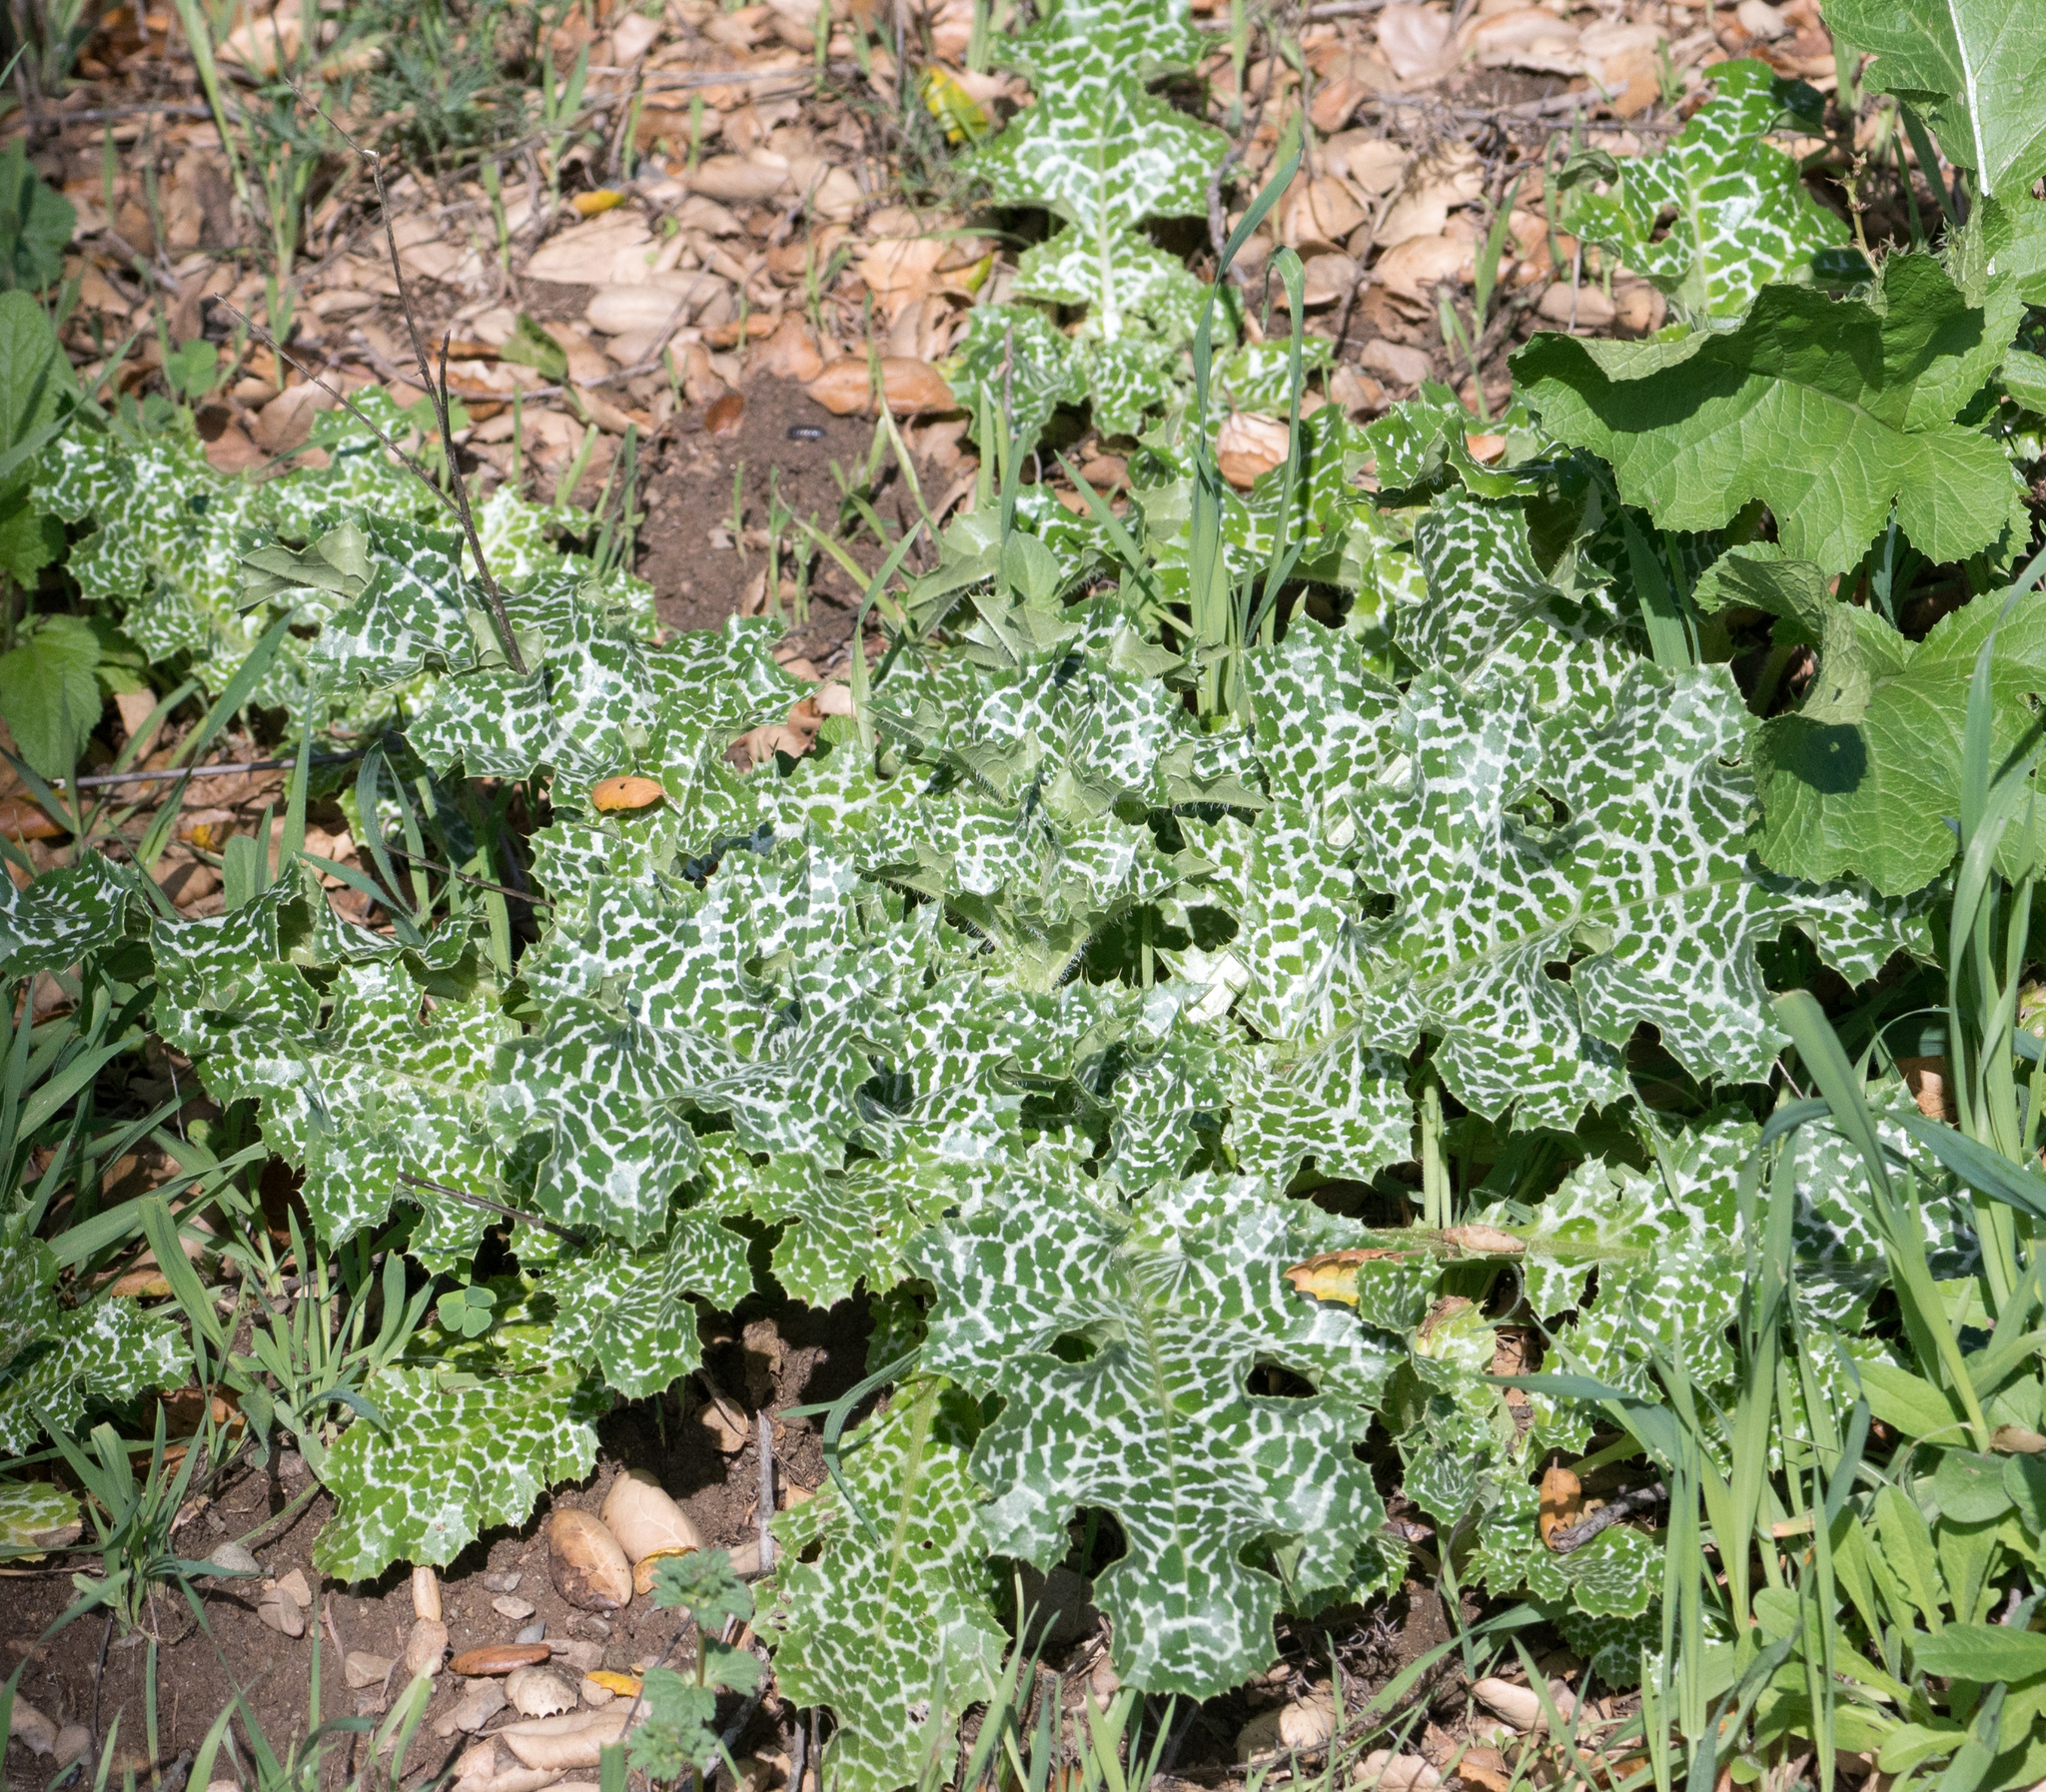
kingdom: Plantae
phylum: Tracheophyta
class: Magnoliopsida
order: Asterales
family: Asteraceae
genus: Silybum
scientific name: Silybum marianum
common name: Milk thistle
